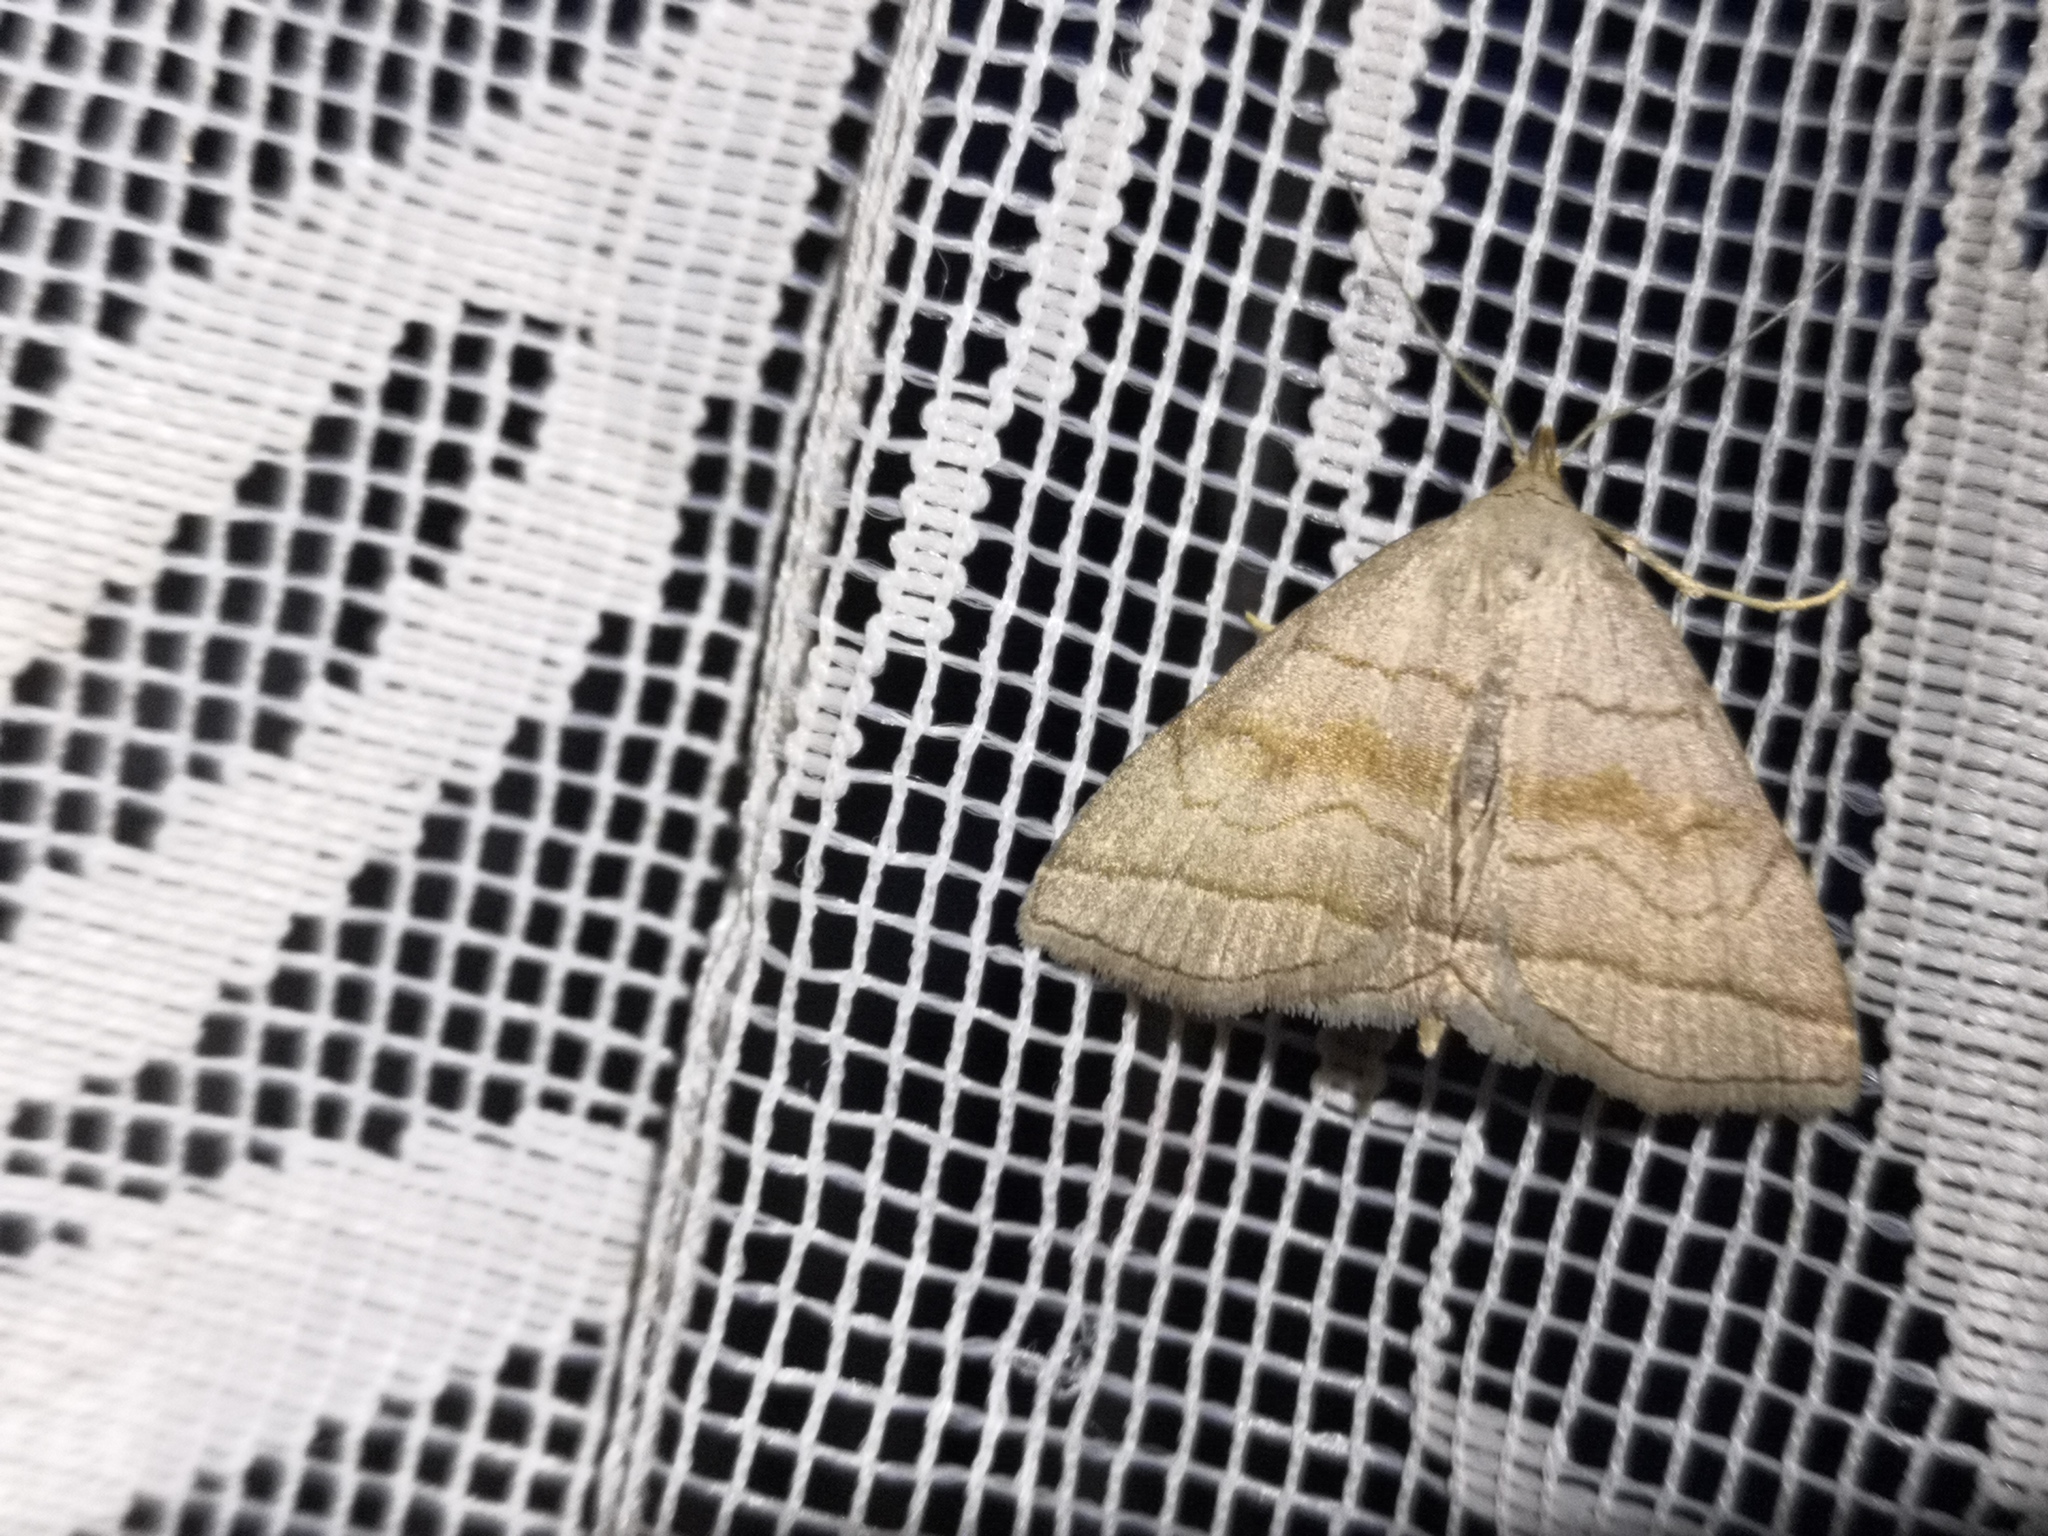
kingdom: Animalia
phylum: Arthropoda
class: Insecta
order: Lepidoptera
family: Erebidae
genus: Herminia
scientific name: Herminia tarsicrinalis
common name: Shaded fan-foot
